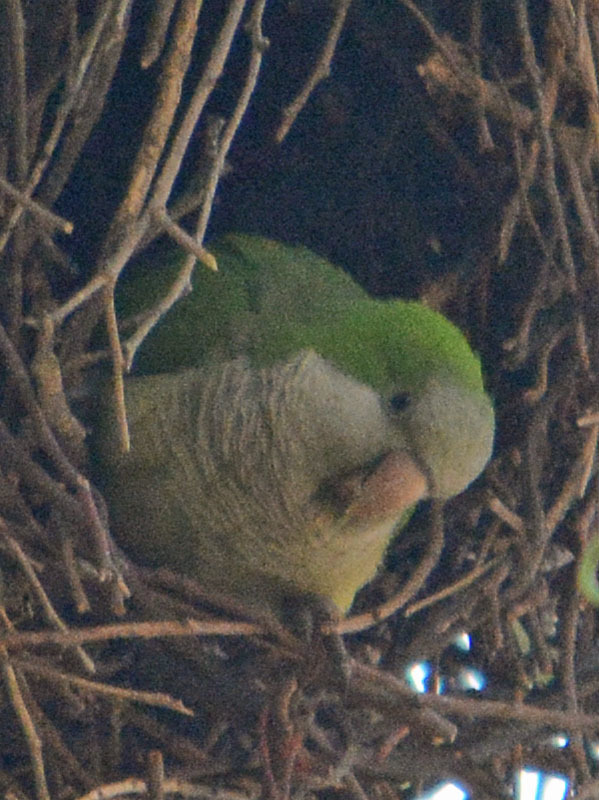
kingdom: Animalia
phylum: Chordata
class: Aves
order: Psittaciformes
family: Psittacidae
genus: Myiopsitta
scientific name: Myiopsitta monachus
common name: Monk parakeet
